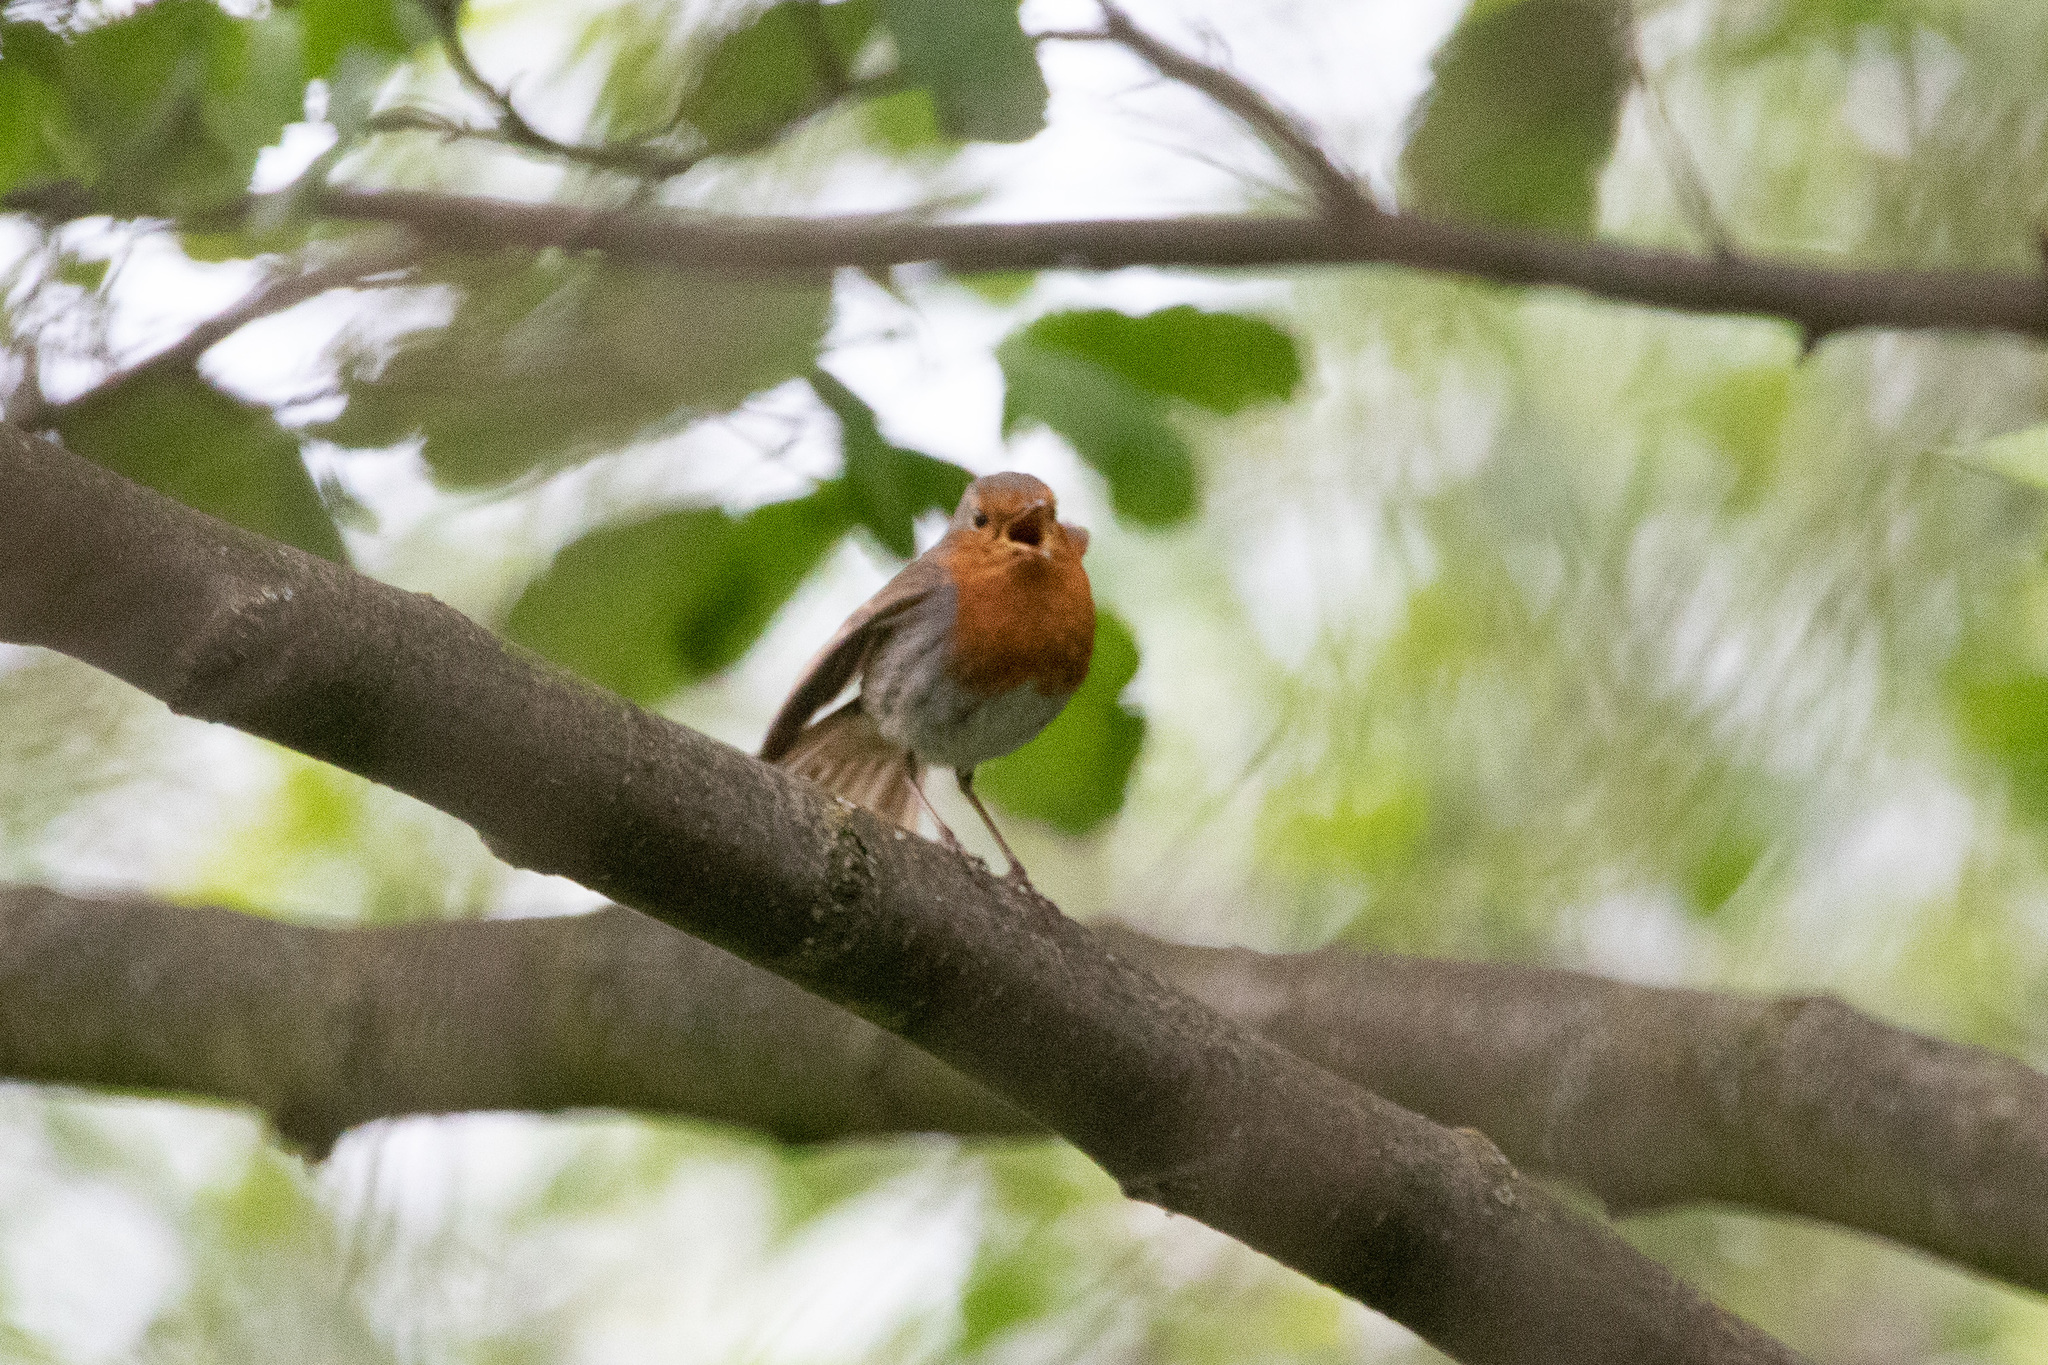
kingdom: Animalia
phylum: Chordata
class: Aves
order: Passeriformes
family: Muscicapidae
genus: Erithacus
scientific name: Erithacus rubecula
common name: European robin
